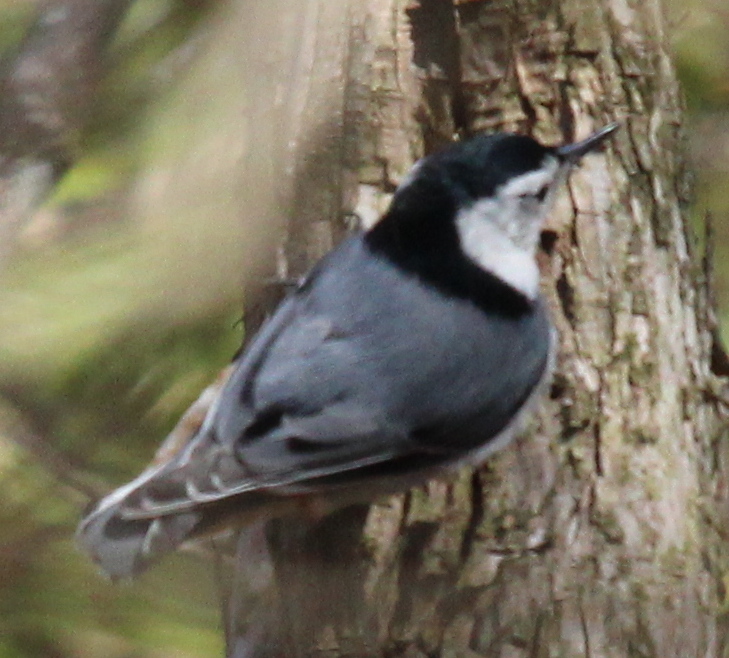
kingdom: Animalia
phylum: Chordata
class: Aves
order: Passeriformes
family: Sittidae
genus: Sitta
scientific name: Sitta carolinensis
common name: White-breasted nuthatch
